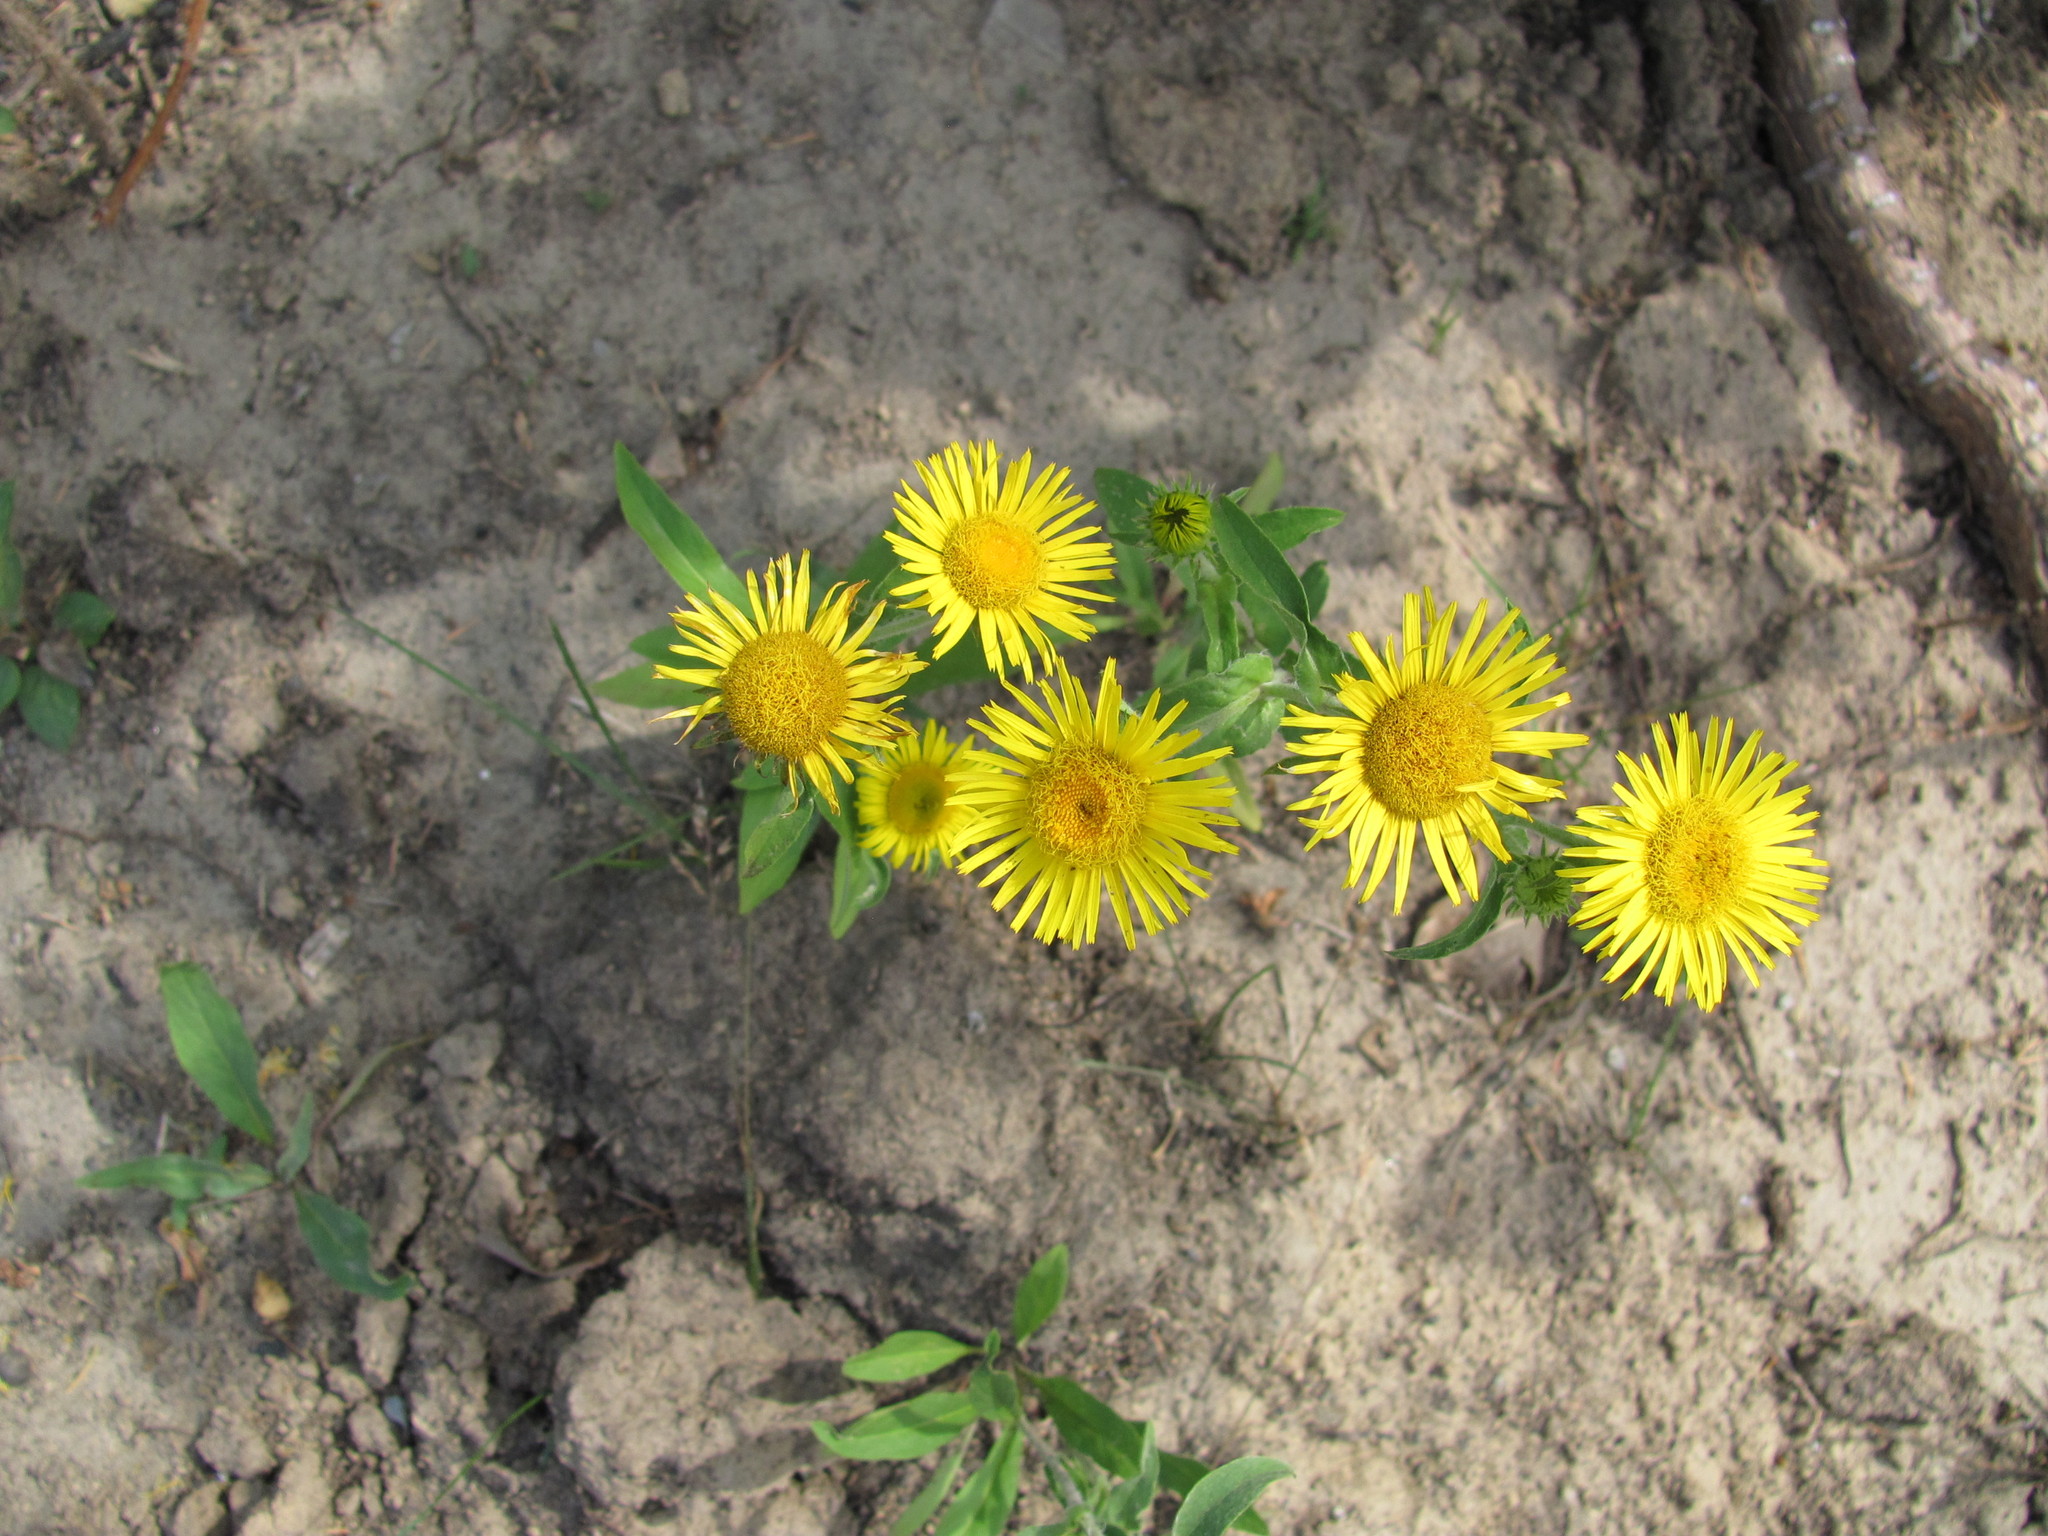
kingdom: Plantae
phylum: Tracheophyta
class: Magnoliopsida
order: Asterales
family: Asteraceae
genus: Pentanema
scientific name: Pentanema britannicum
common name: British elecampane
